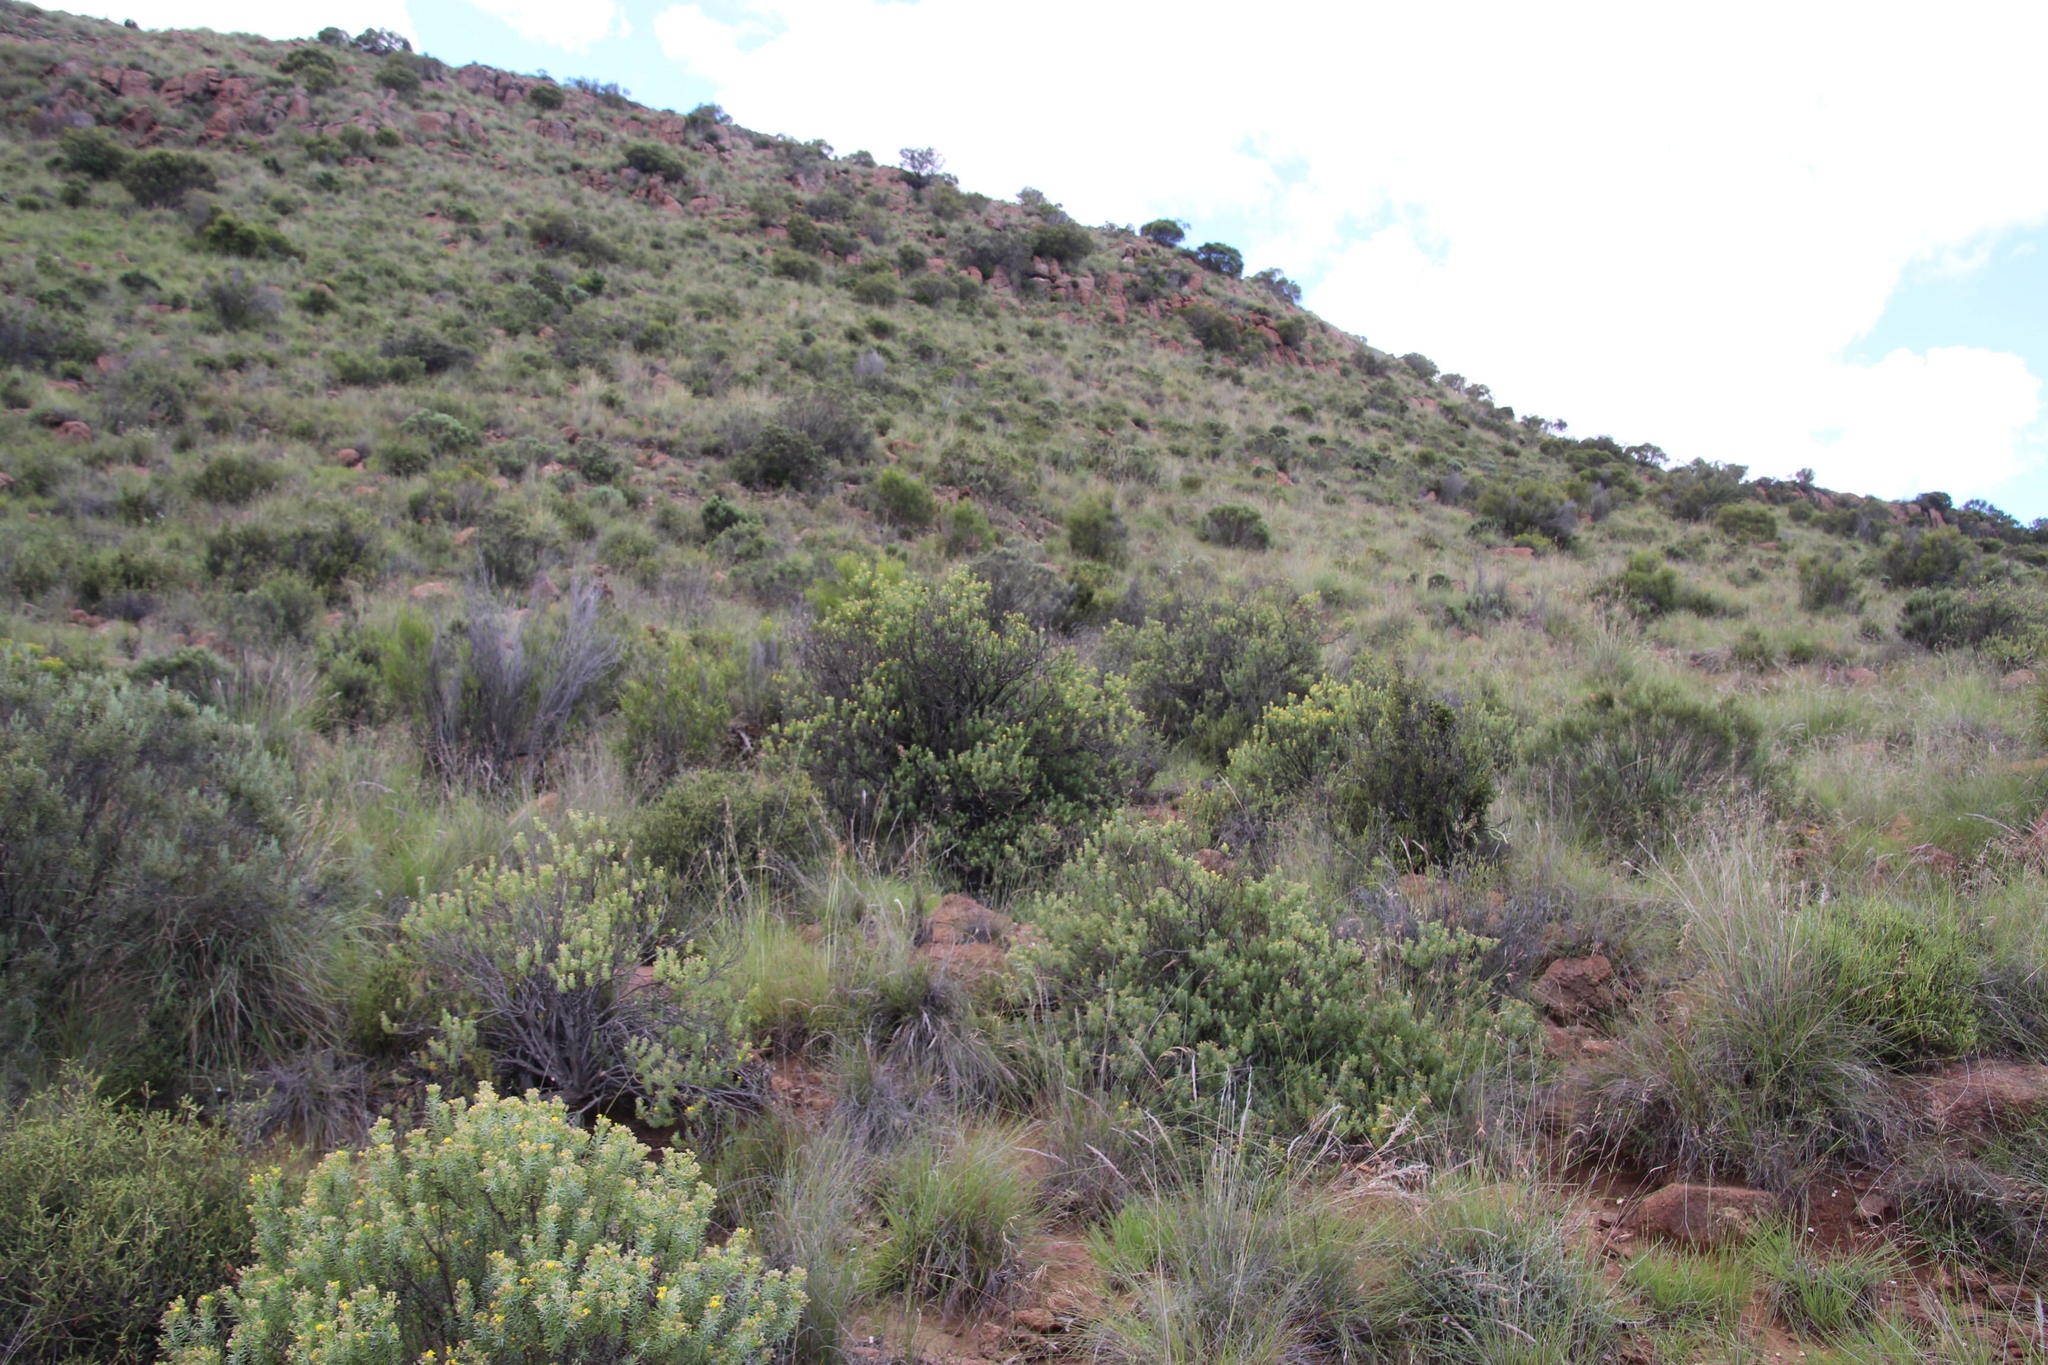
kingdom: Plantae
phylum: Tracheophyta
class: Magnoliopsida
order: Asterales
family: Asteraceae
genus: Euryops
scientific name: Euryops nodosus
